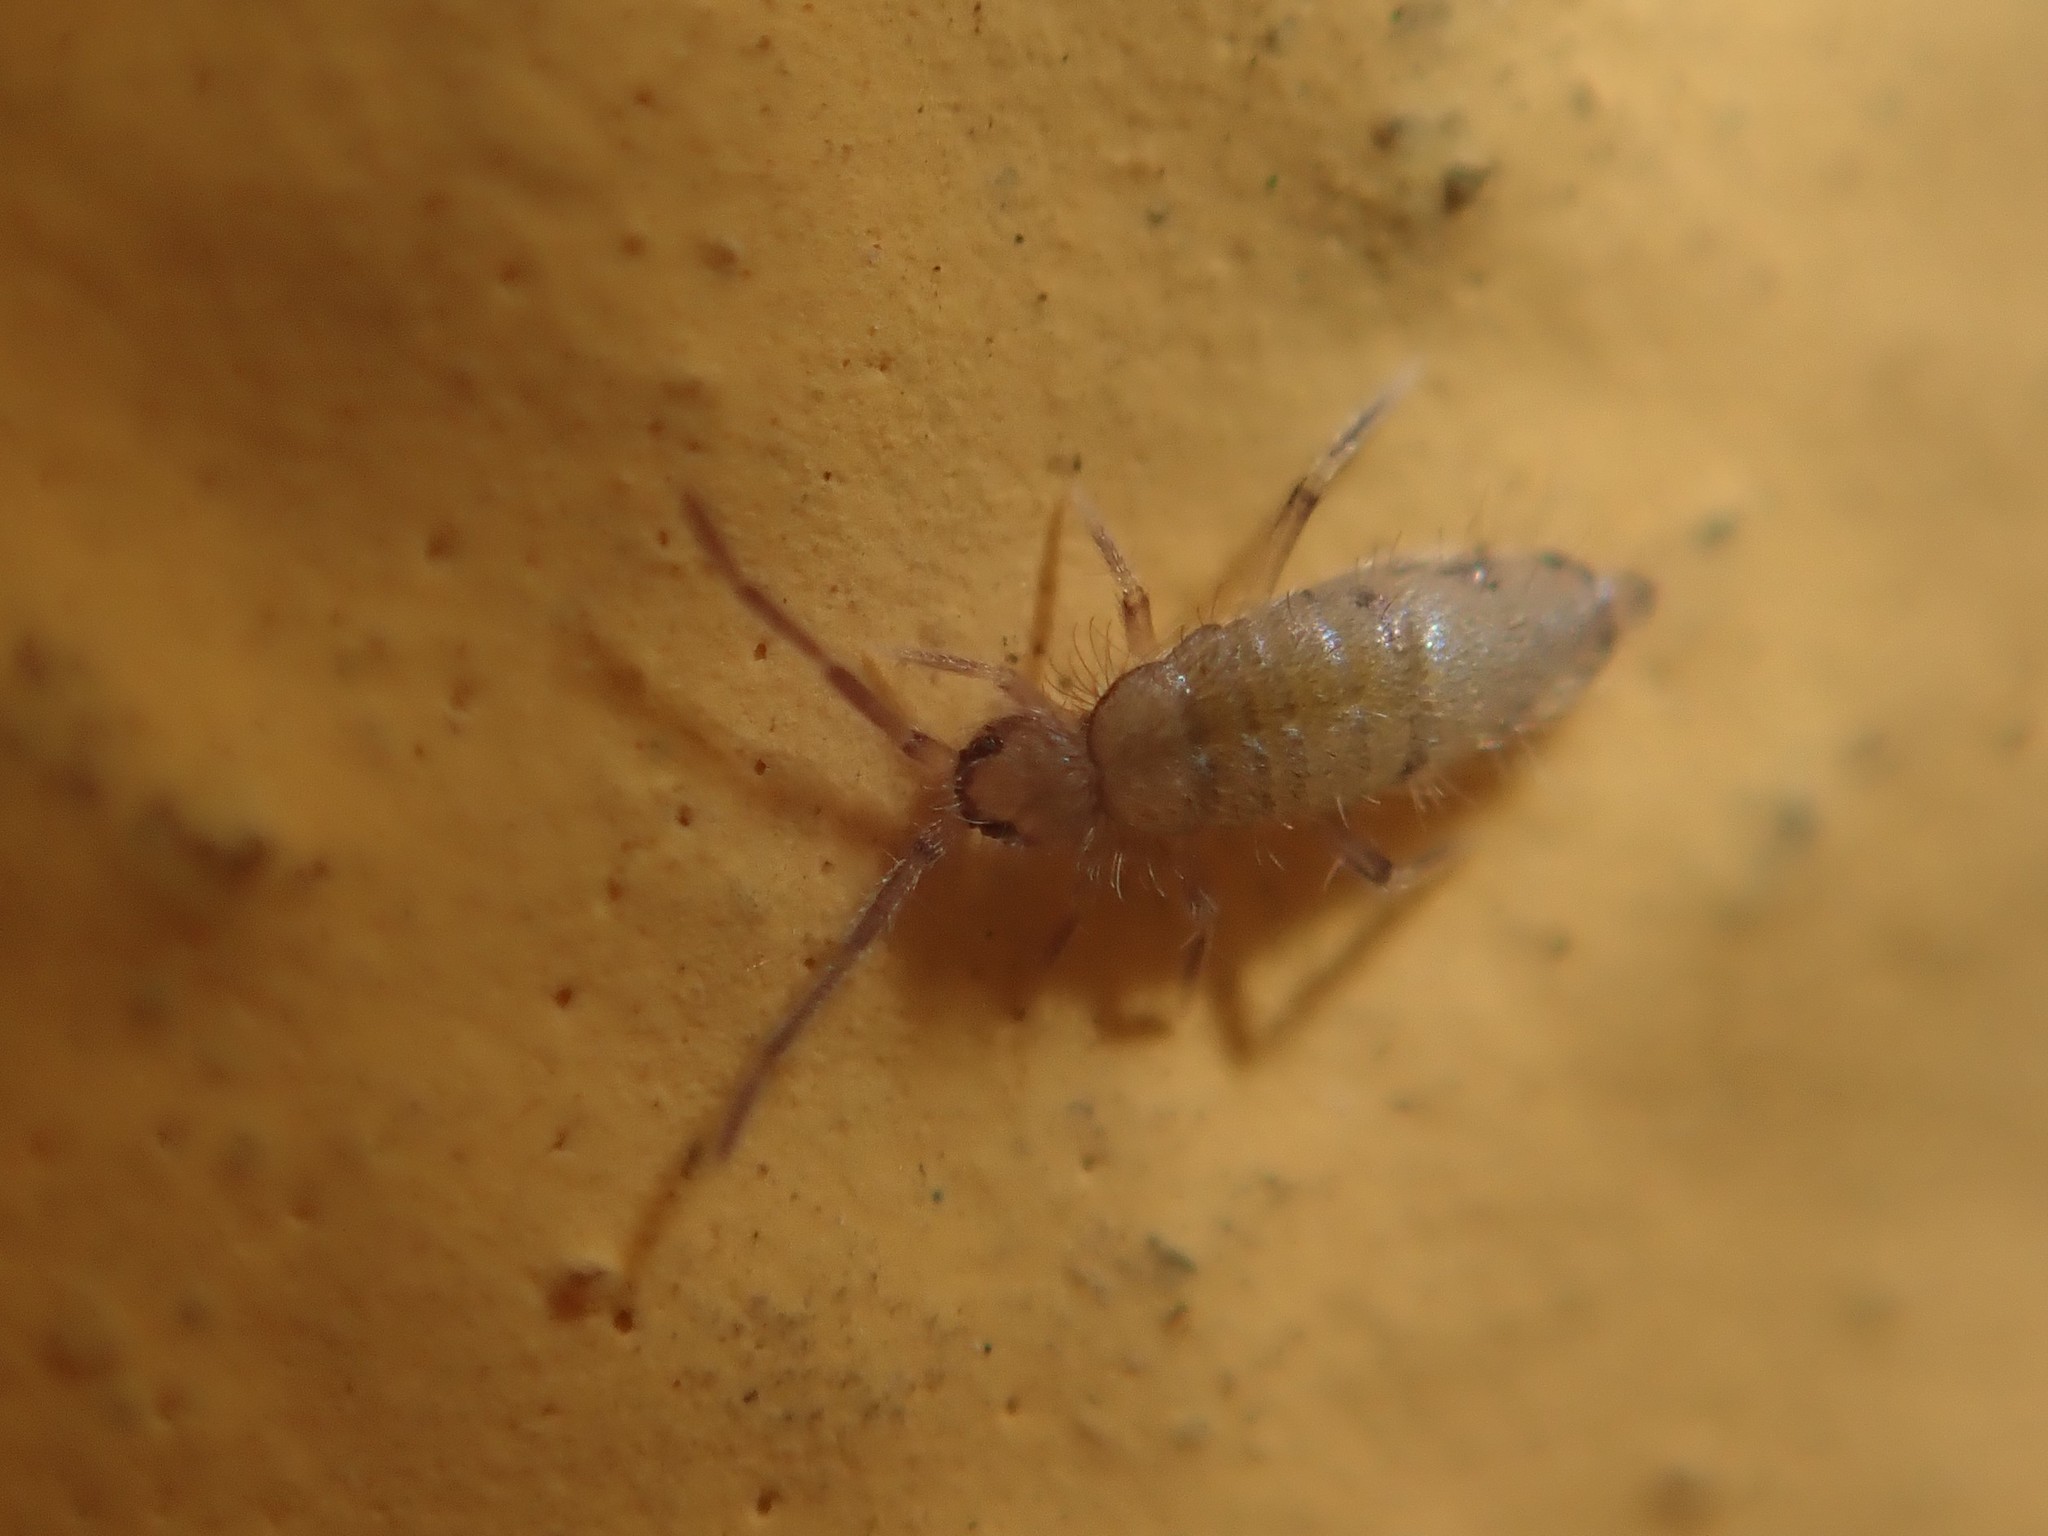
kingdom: Animalia
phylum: Arthropoda
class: Collembola
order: Entomobryomorpha
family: Entomobryidae
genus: Willowsia
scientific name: Willowsia nigromaculata
